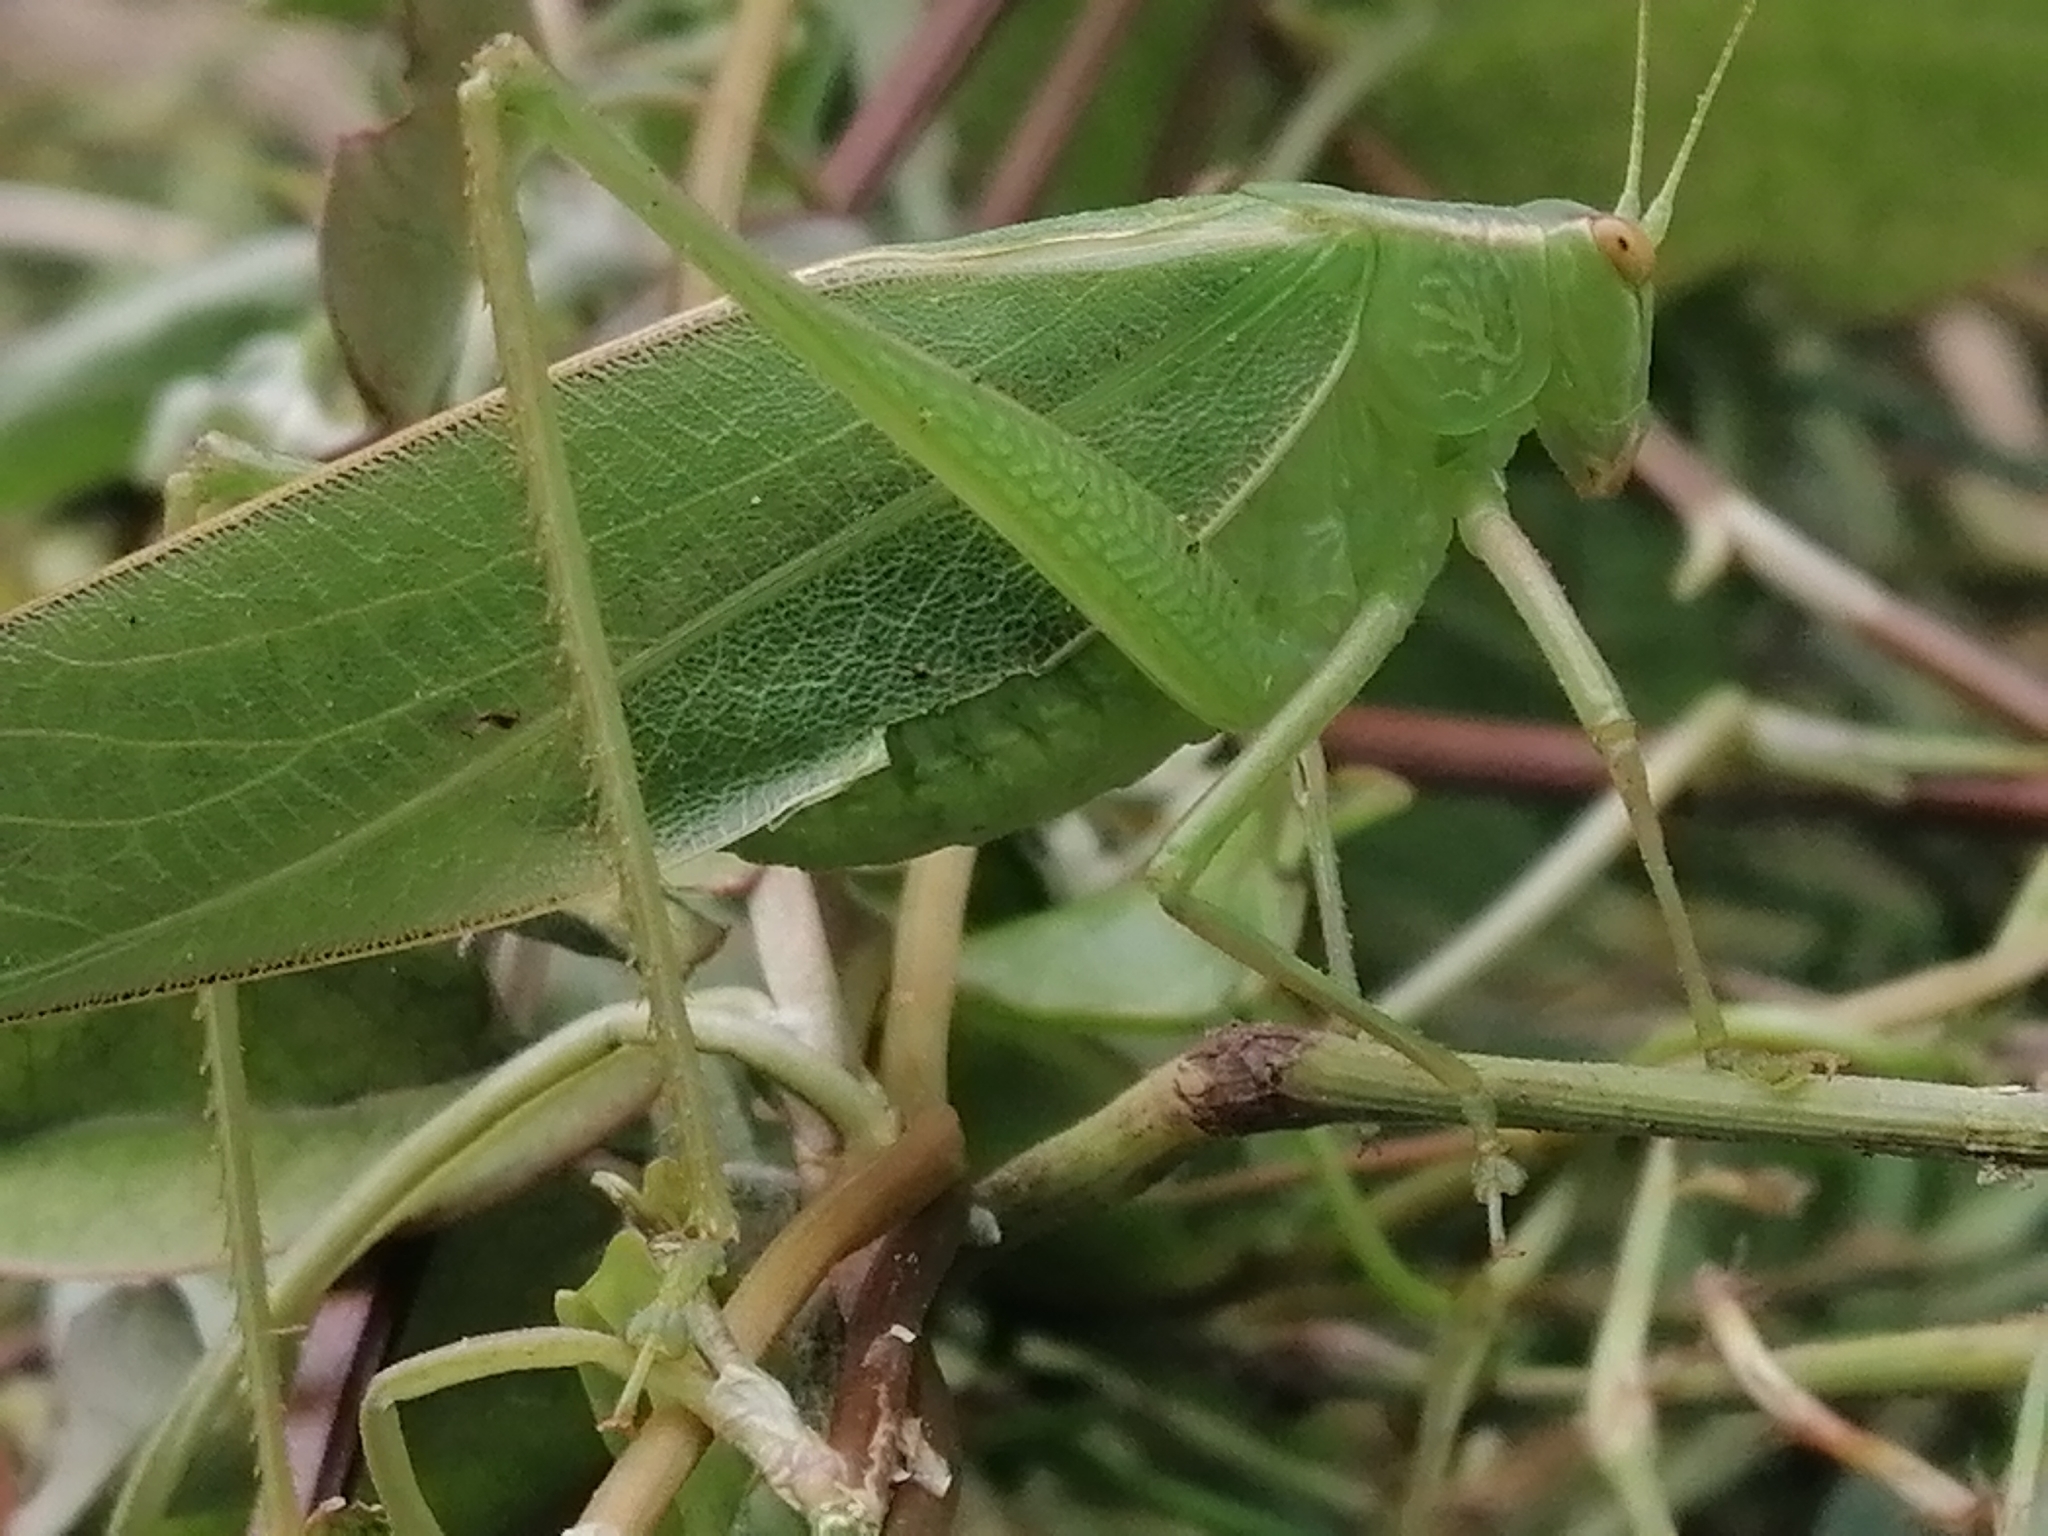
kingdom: Animalia
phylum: Arthropoda
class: Insecta
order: Orthoptera
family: Tettigoniidae
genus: Caedicia
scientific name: Caedicia simplex
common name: Common garden katydid
